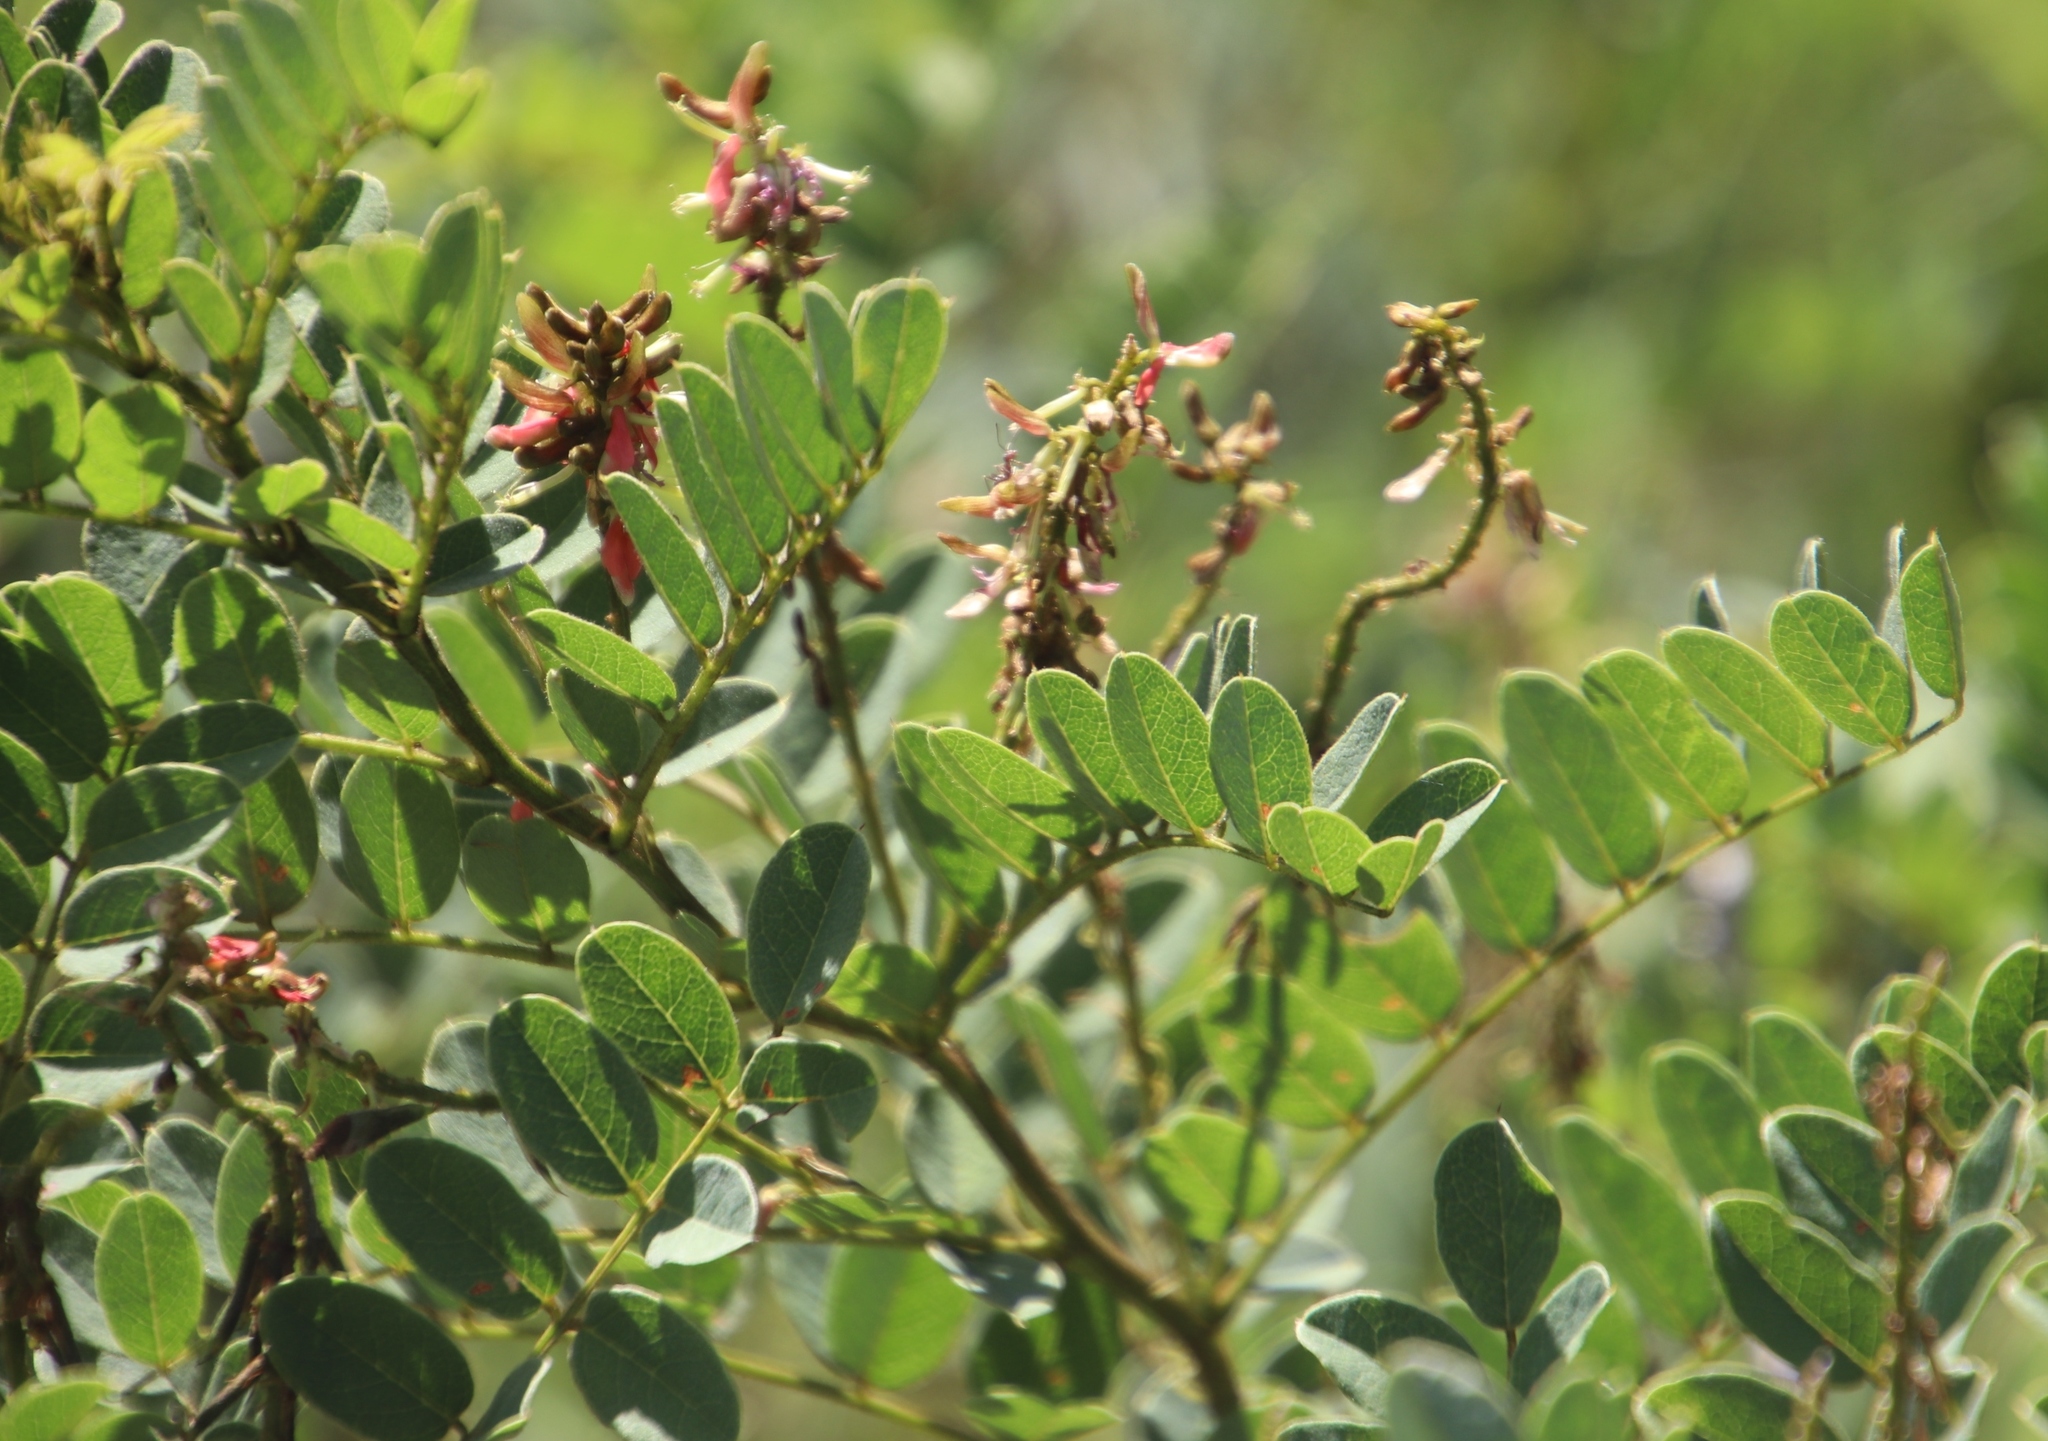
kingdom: Plantae
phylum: Tracheophyta
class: Magnoliopsida
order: Fabales
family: Fabaceae
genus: Indigofera
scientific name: Indigofera swaziensis
